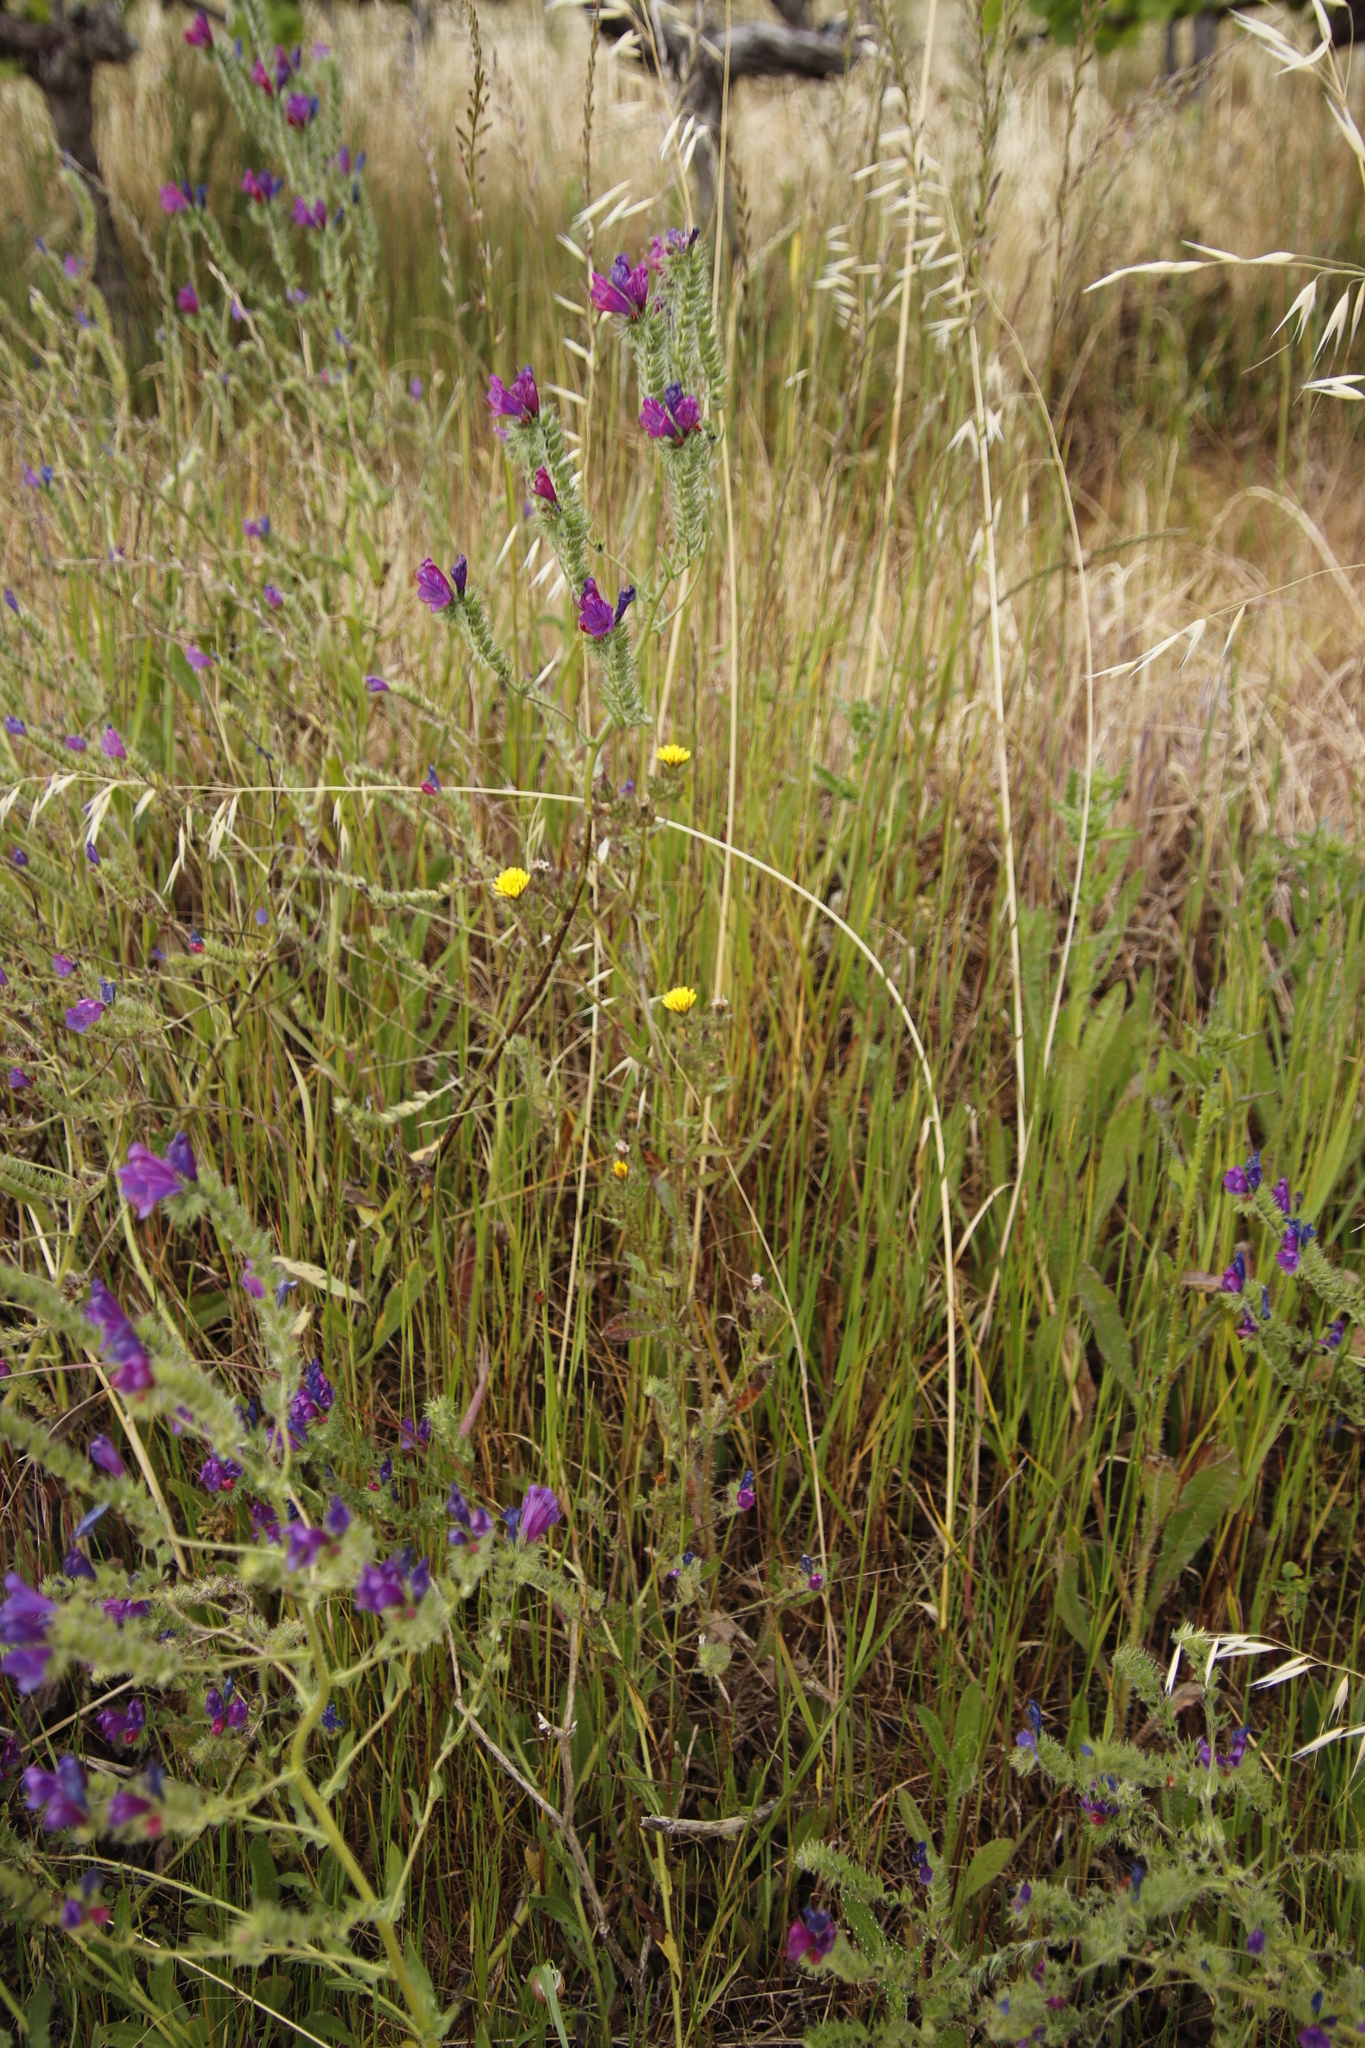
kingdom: Plantae
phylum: Tracheophyta
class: Magnoliopsida
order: Asterales
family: Asteraceae
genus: Helminthotheca
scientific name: Helminthotheca echioides
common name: Ox-tongue
